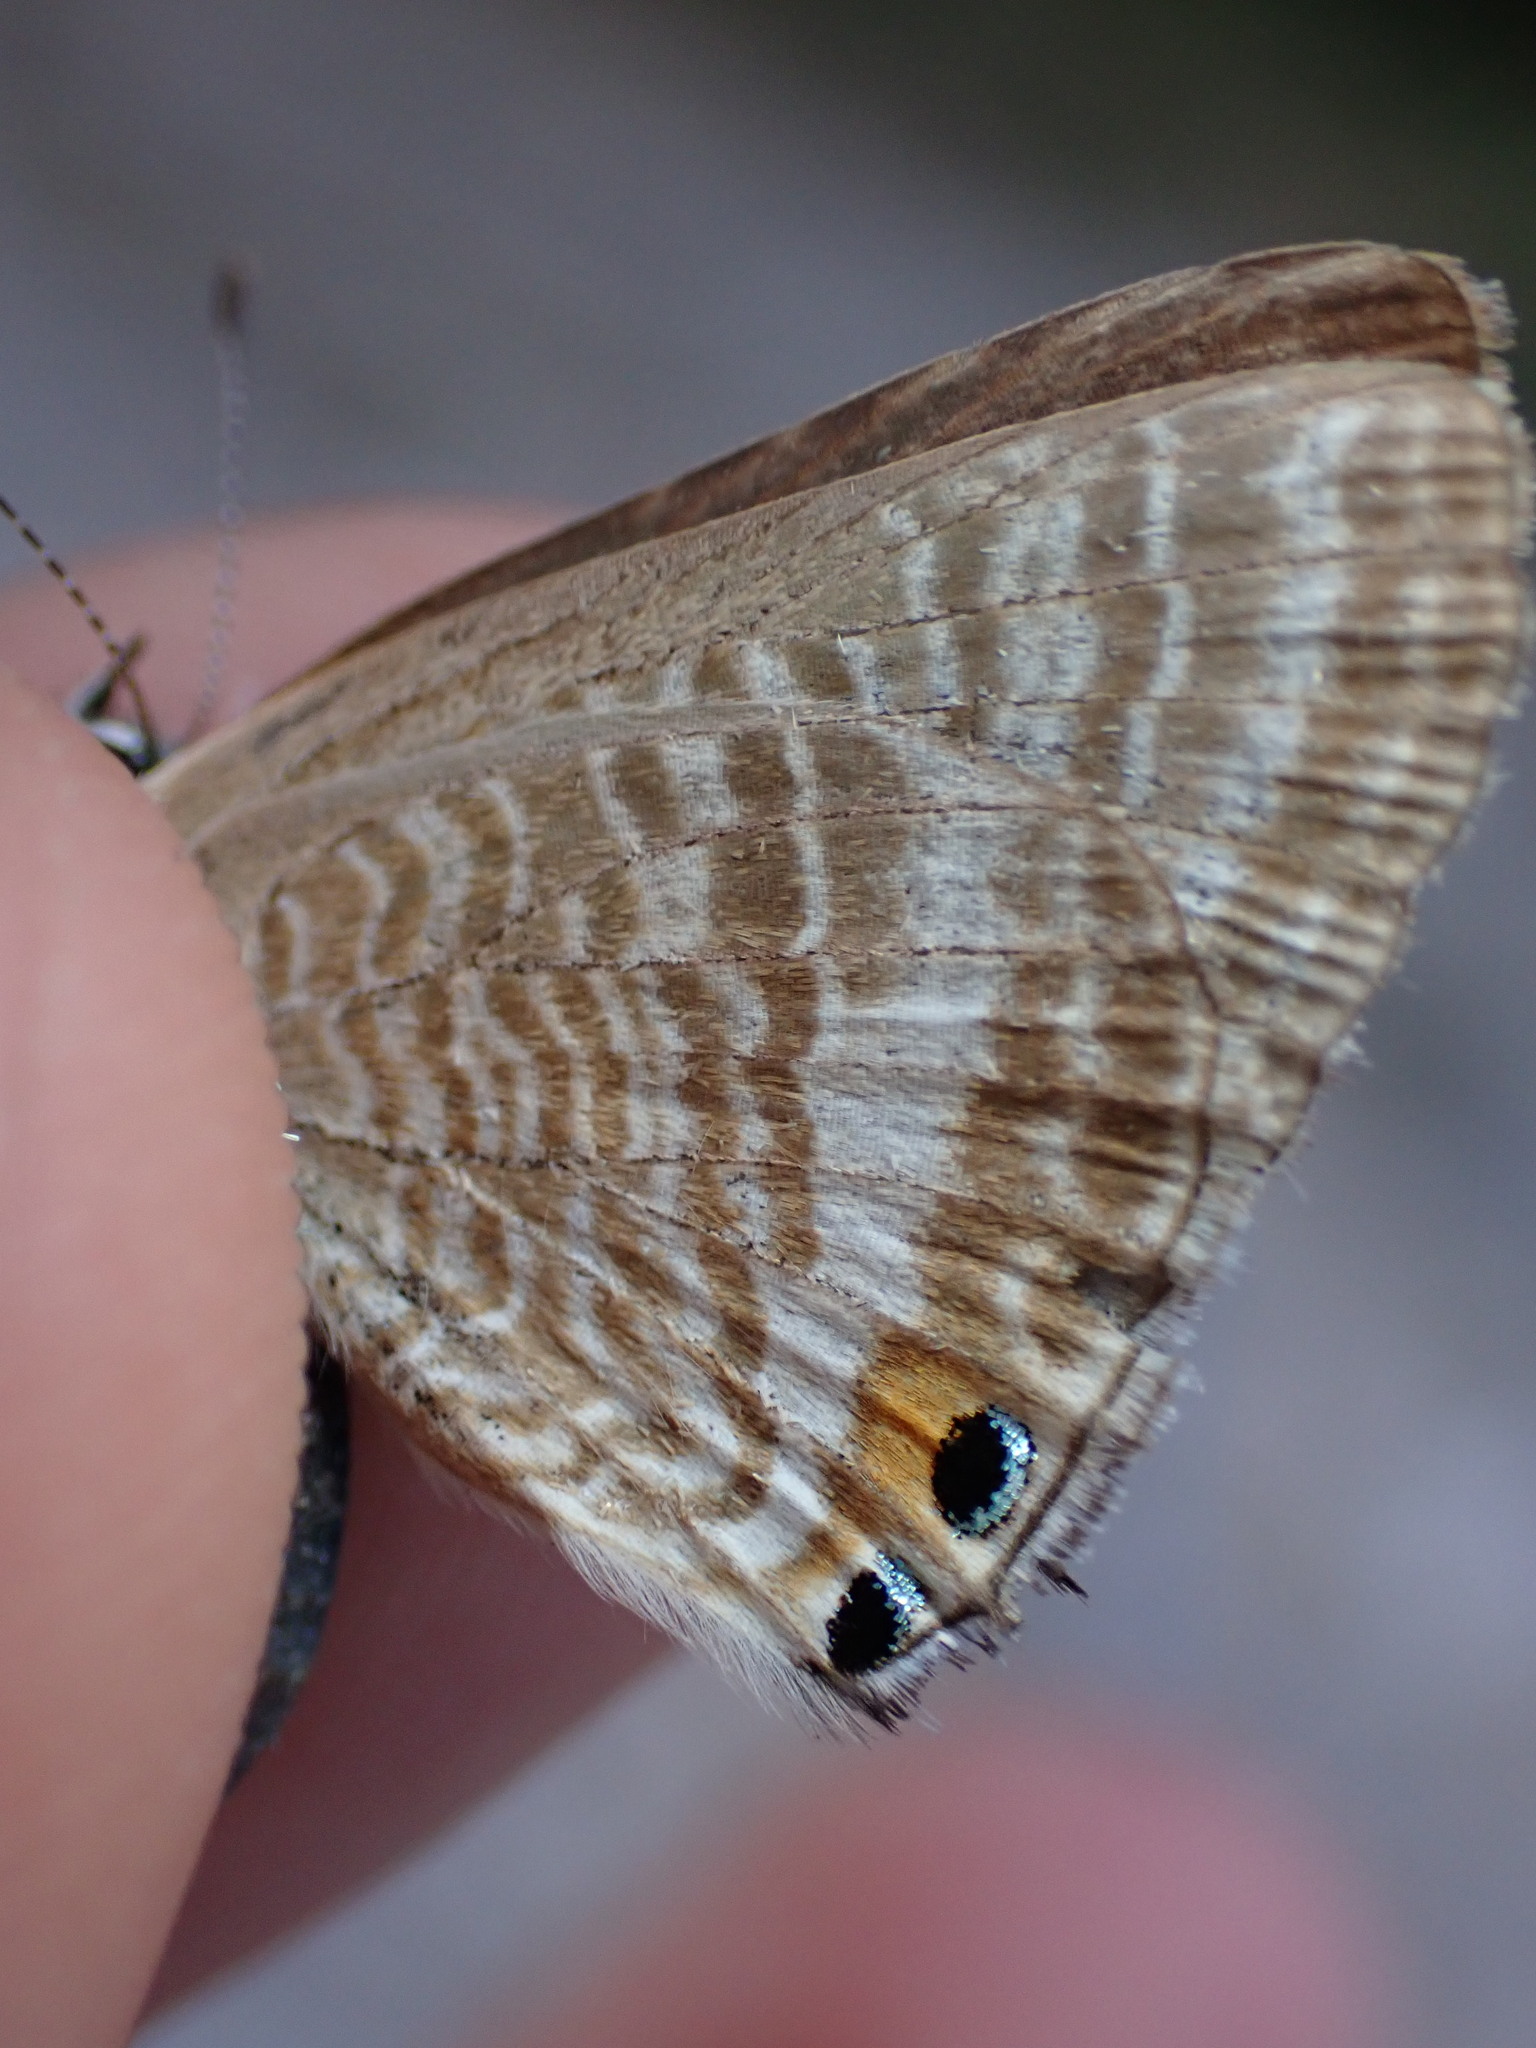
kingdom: Animalia
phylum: Arthropoda
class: Insecta
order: Lepidoptera
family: Lycaenidae
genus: Lampides
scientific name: Lampides boeticus
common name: Long-tailed blue
